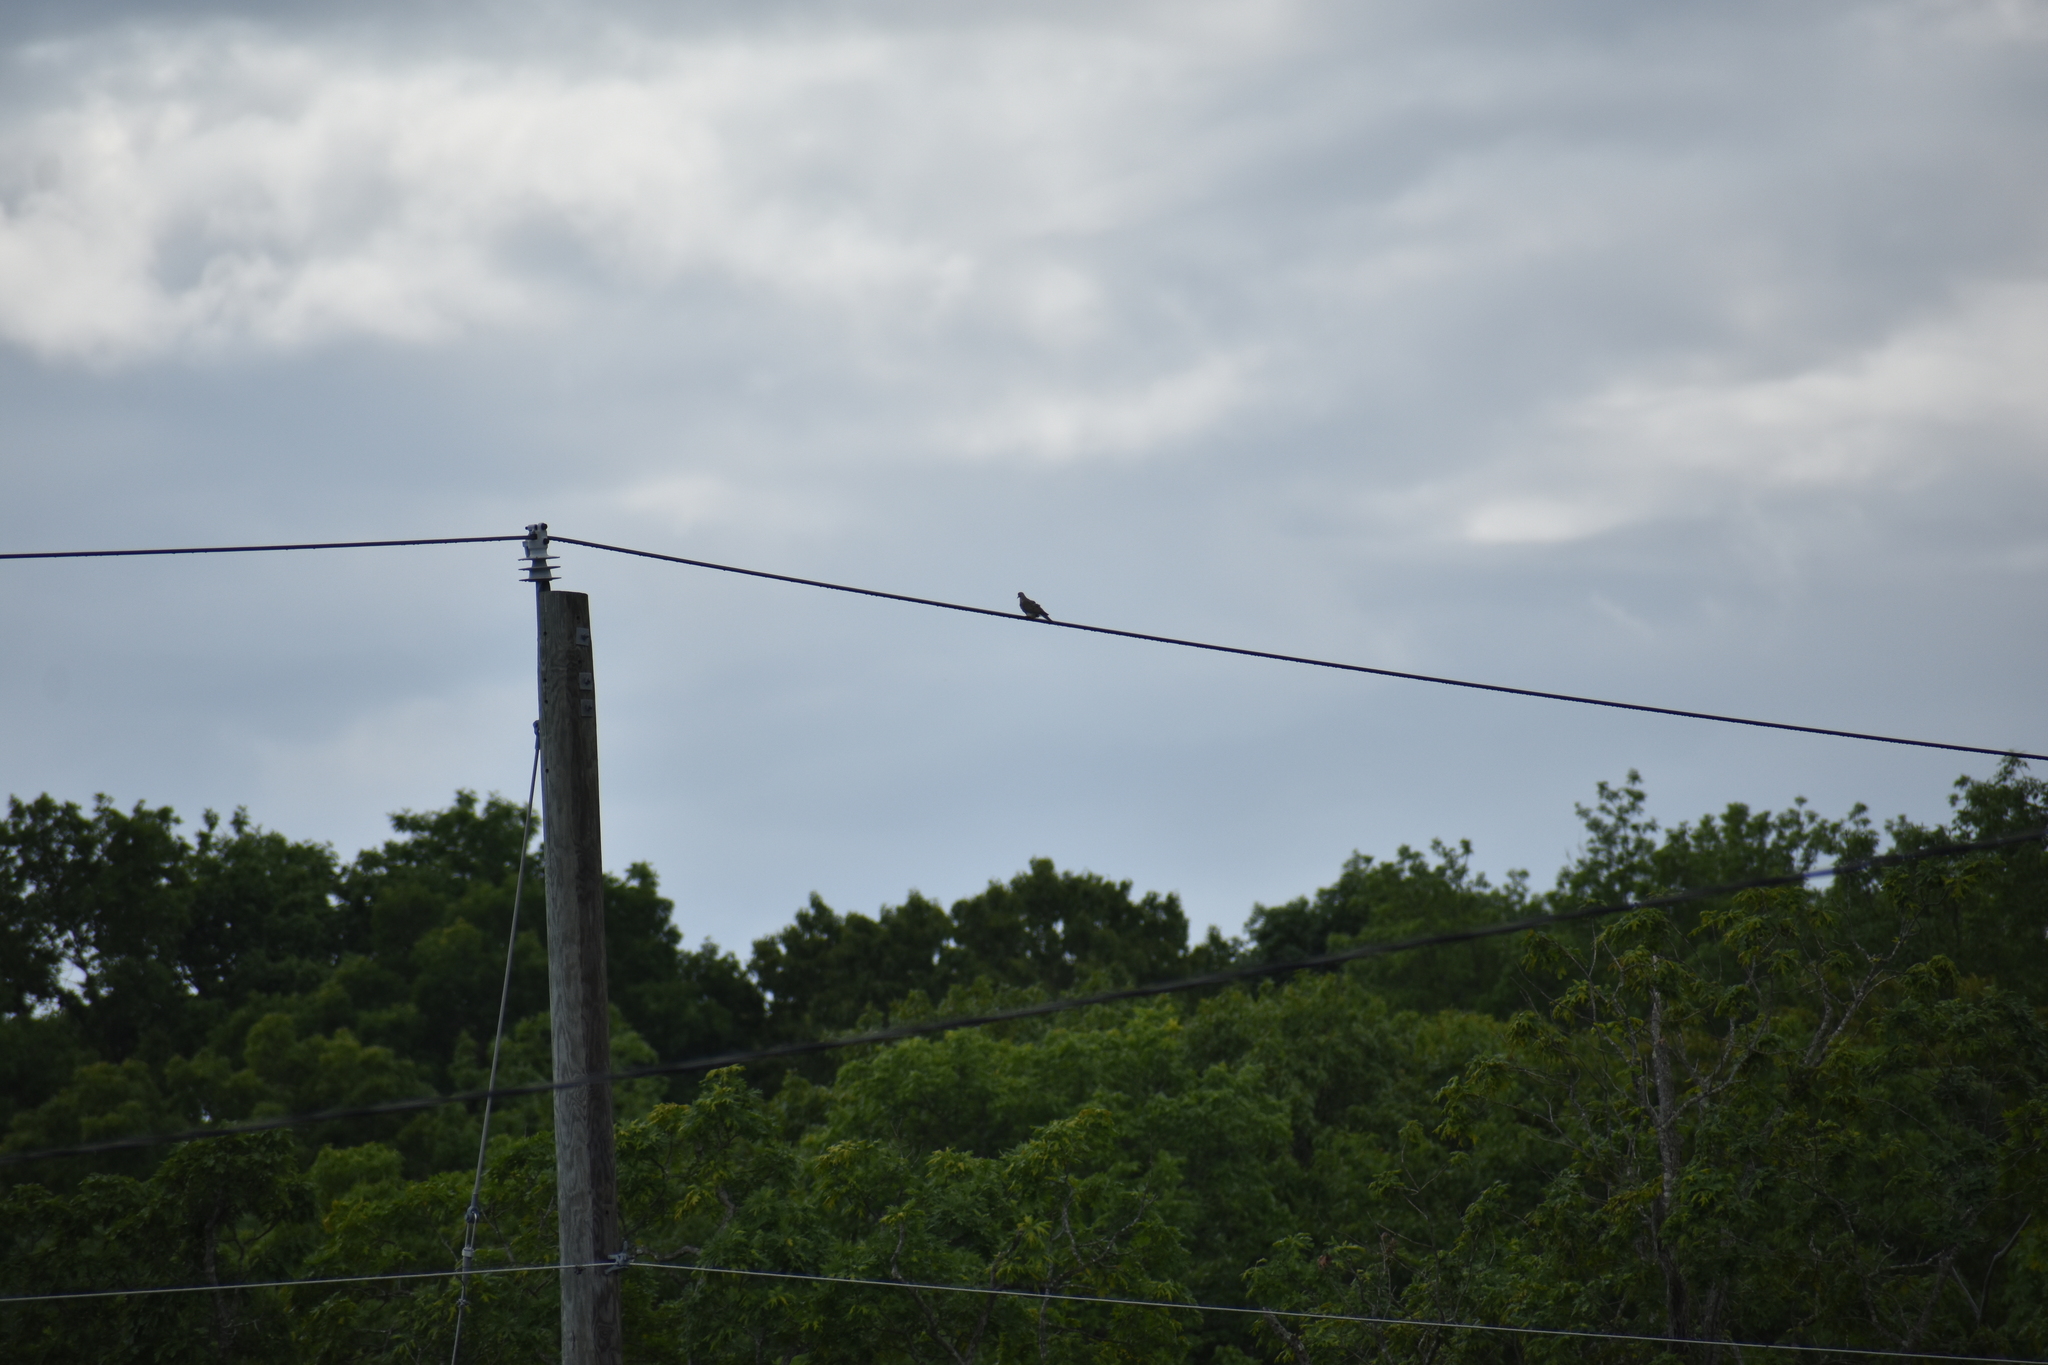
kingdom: Animalia
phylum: Chordata
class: Aves
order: Columbiformes
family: Columbidae
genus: Zenaida
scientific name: Zenaida macroura
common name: Mourning dove
